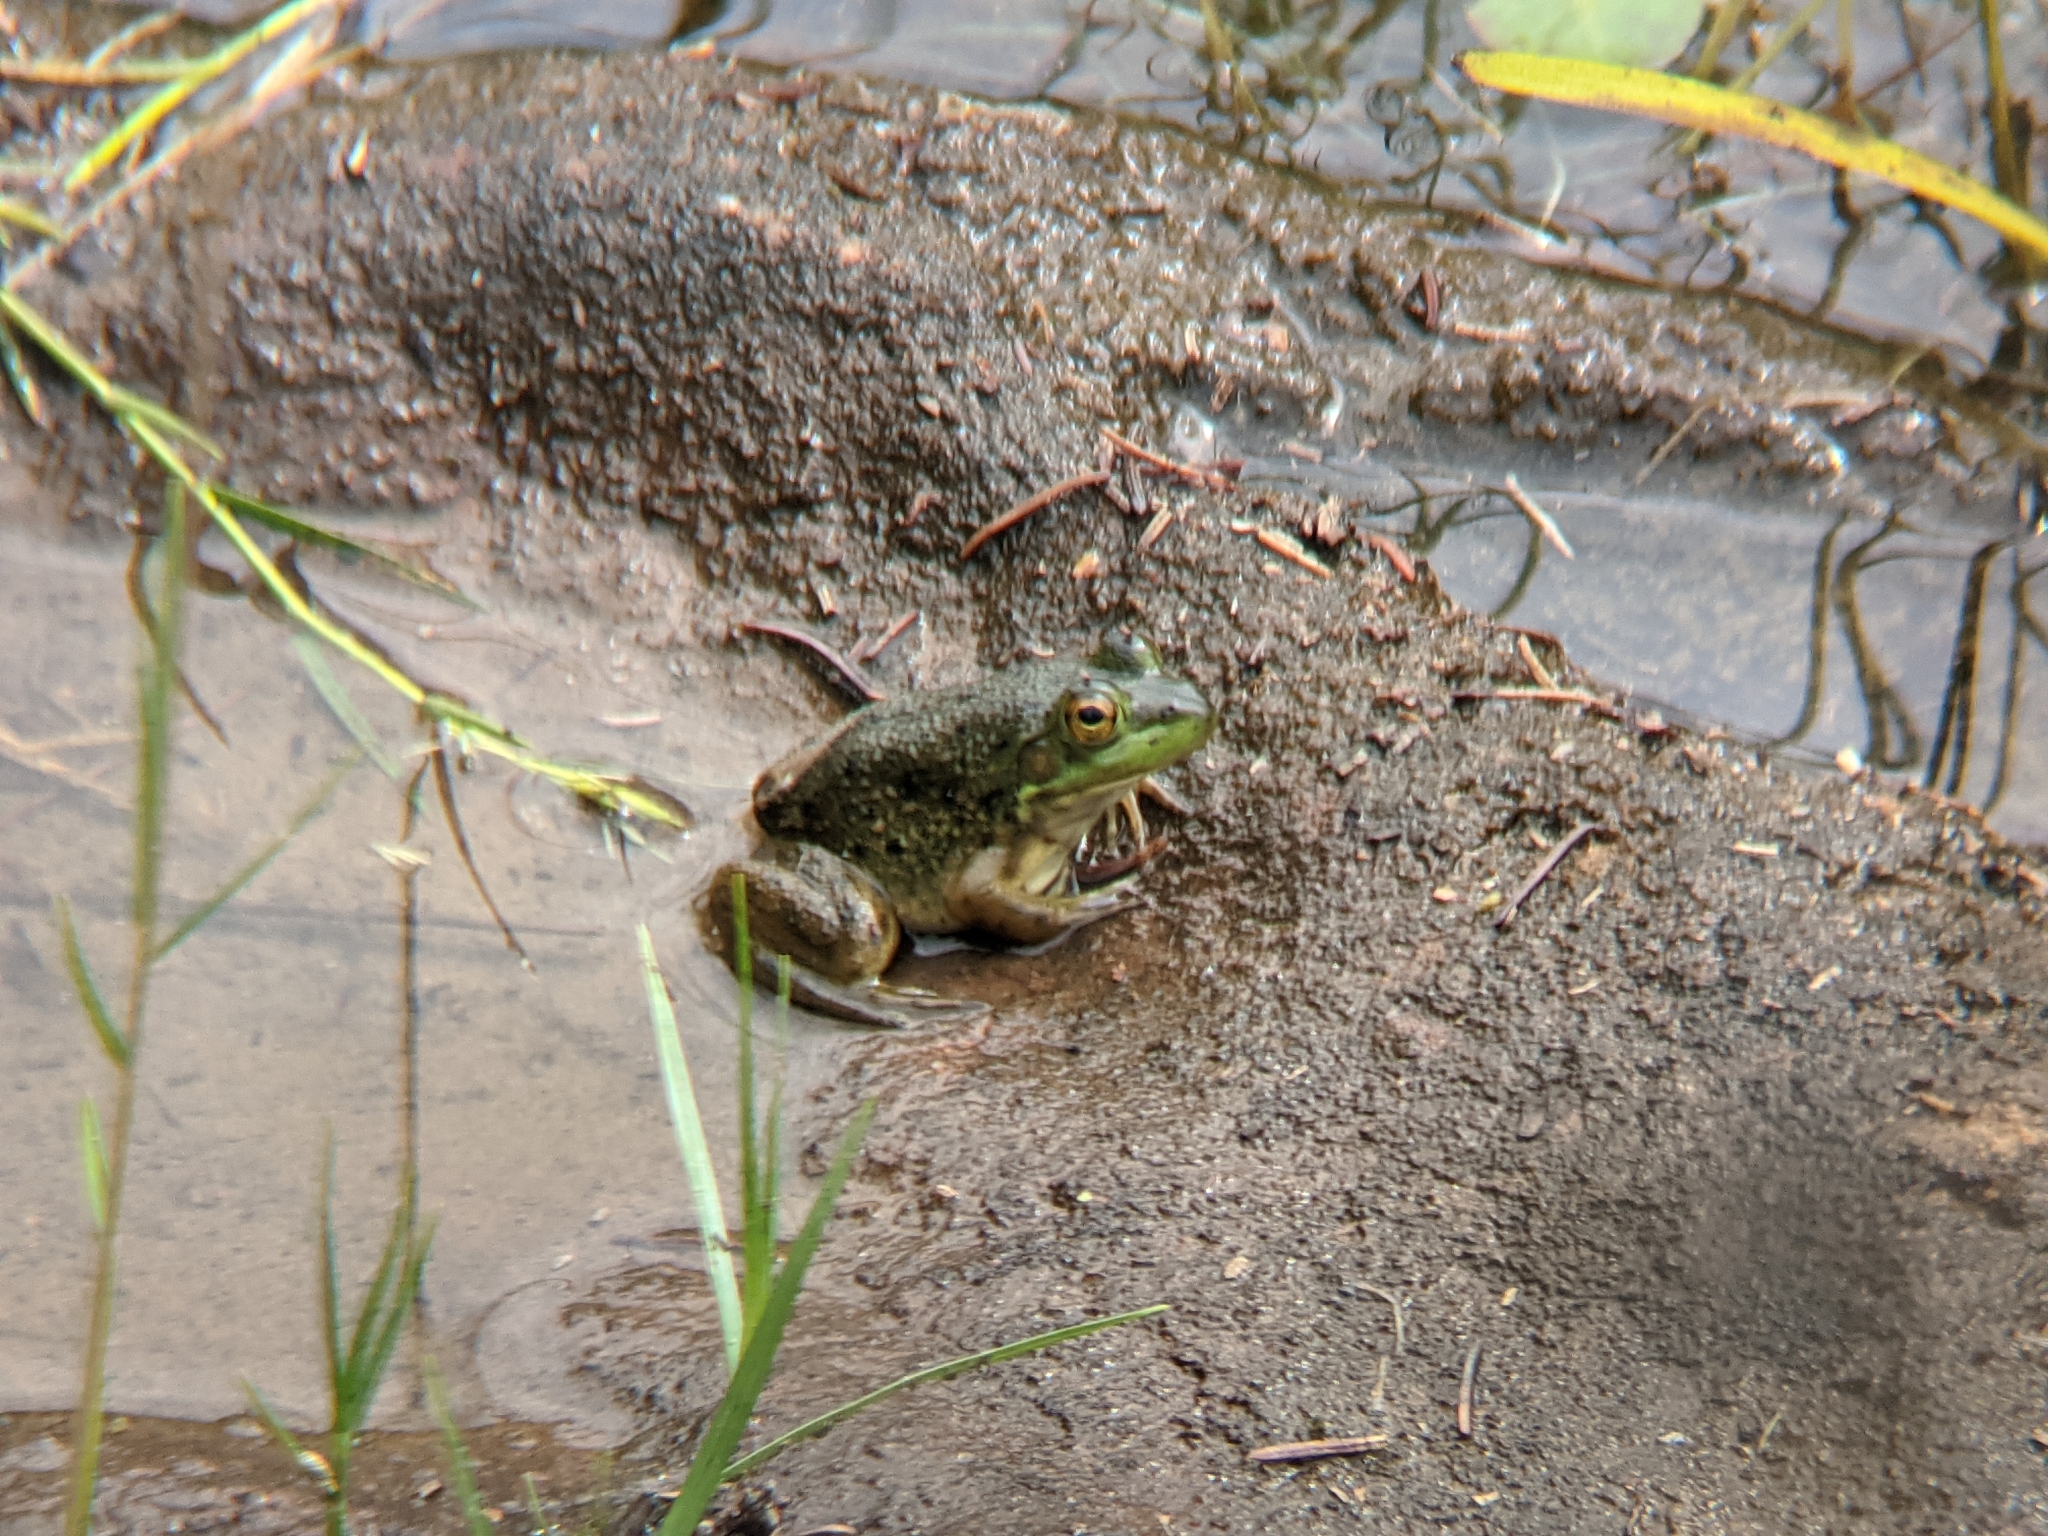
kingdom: Animalia
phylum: Chordata
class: Amphibia
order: Anura
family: Ranidae
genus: Lithobates
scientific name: Lithobates catesbeianus
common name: American bullfrog
